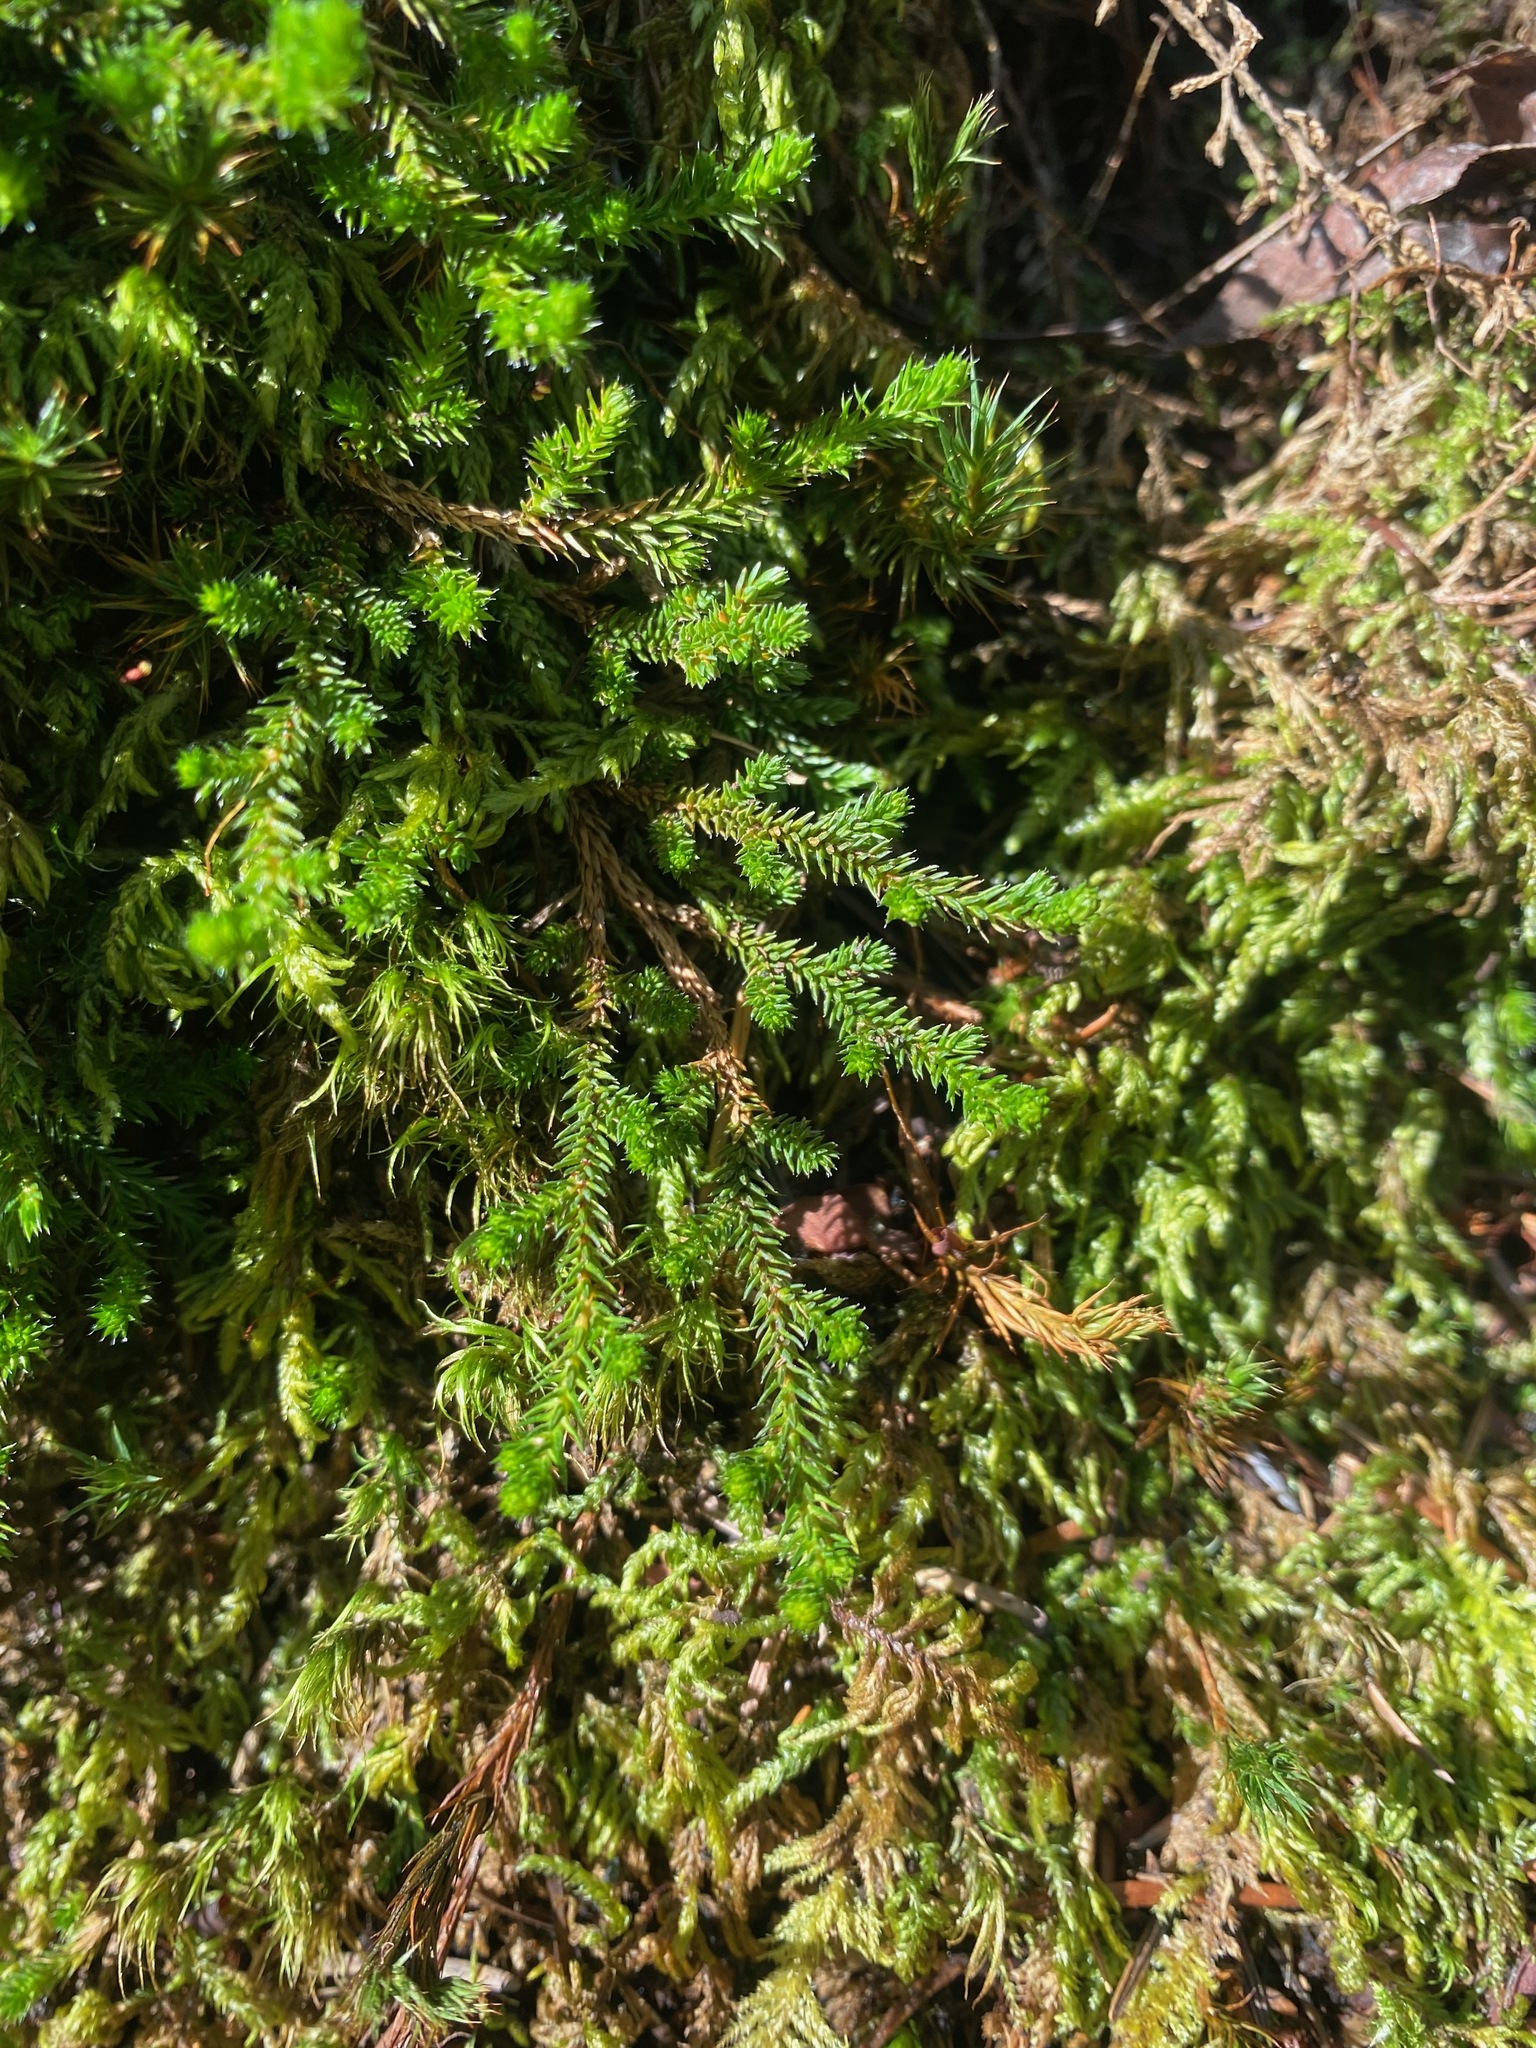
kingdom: Plantae
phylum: Tracheophyta
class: Lycopodiopsida
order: Selaginellales
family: Selaginellaceae
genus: Selaginella
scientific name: Selaginella wallacei
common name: Wallace's selaginella
